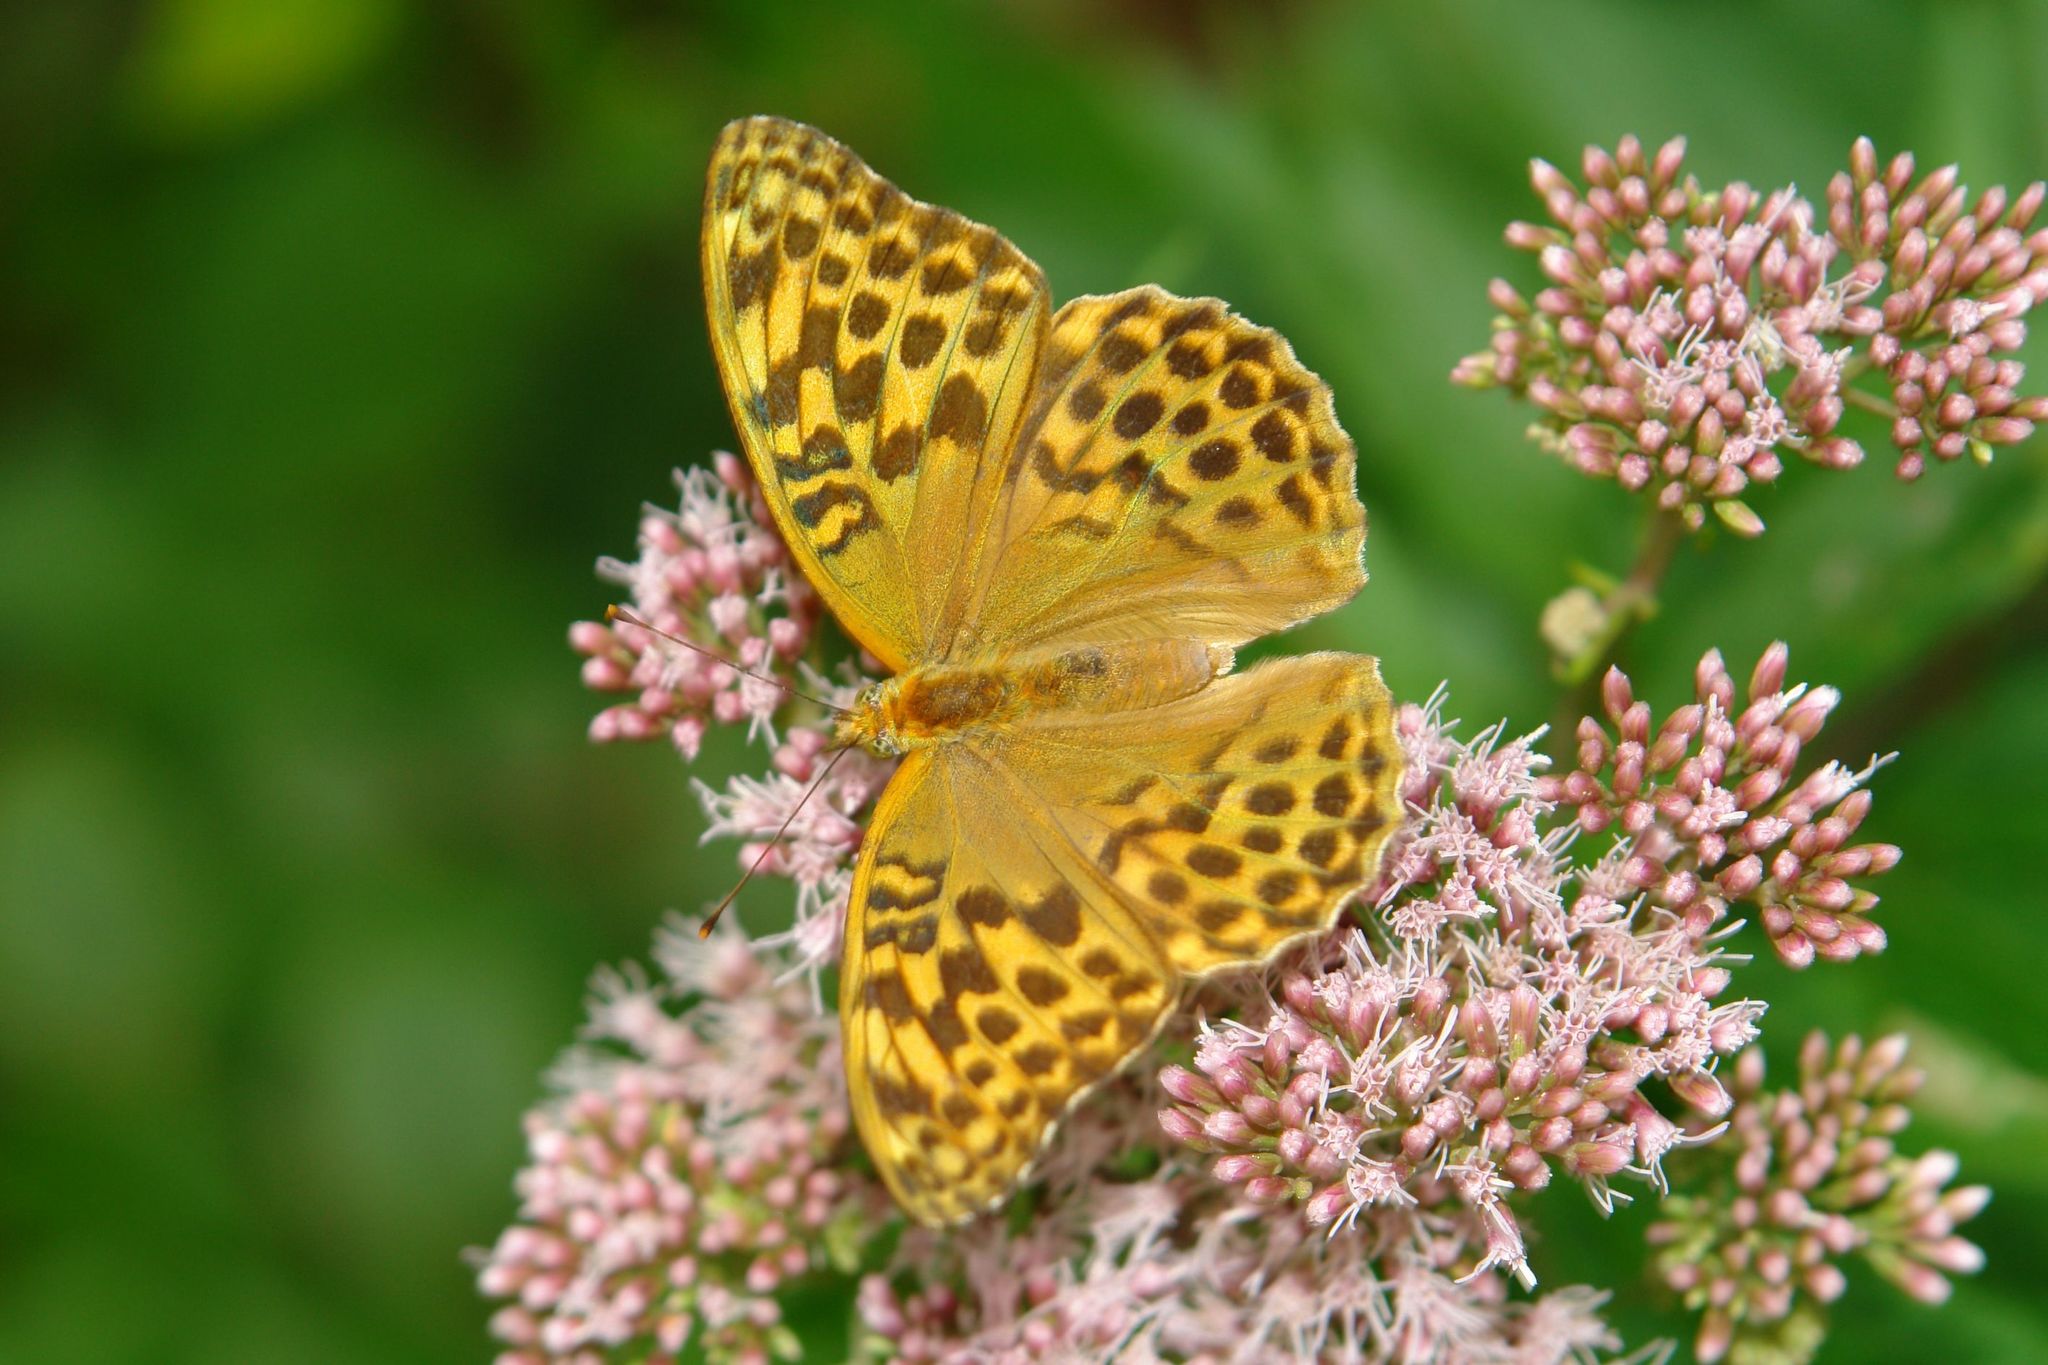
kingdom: Animalia
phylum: Arthropoda
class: Insecta
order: Lepidoptera
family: Nymphalidae
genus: Argynnis
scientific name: Argynnis paphia
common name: Silver-washed fritillary
